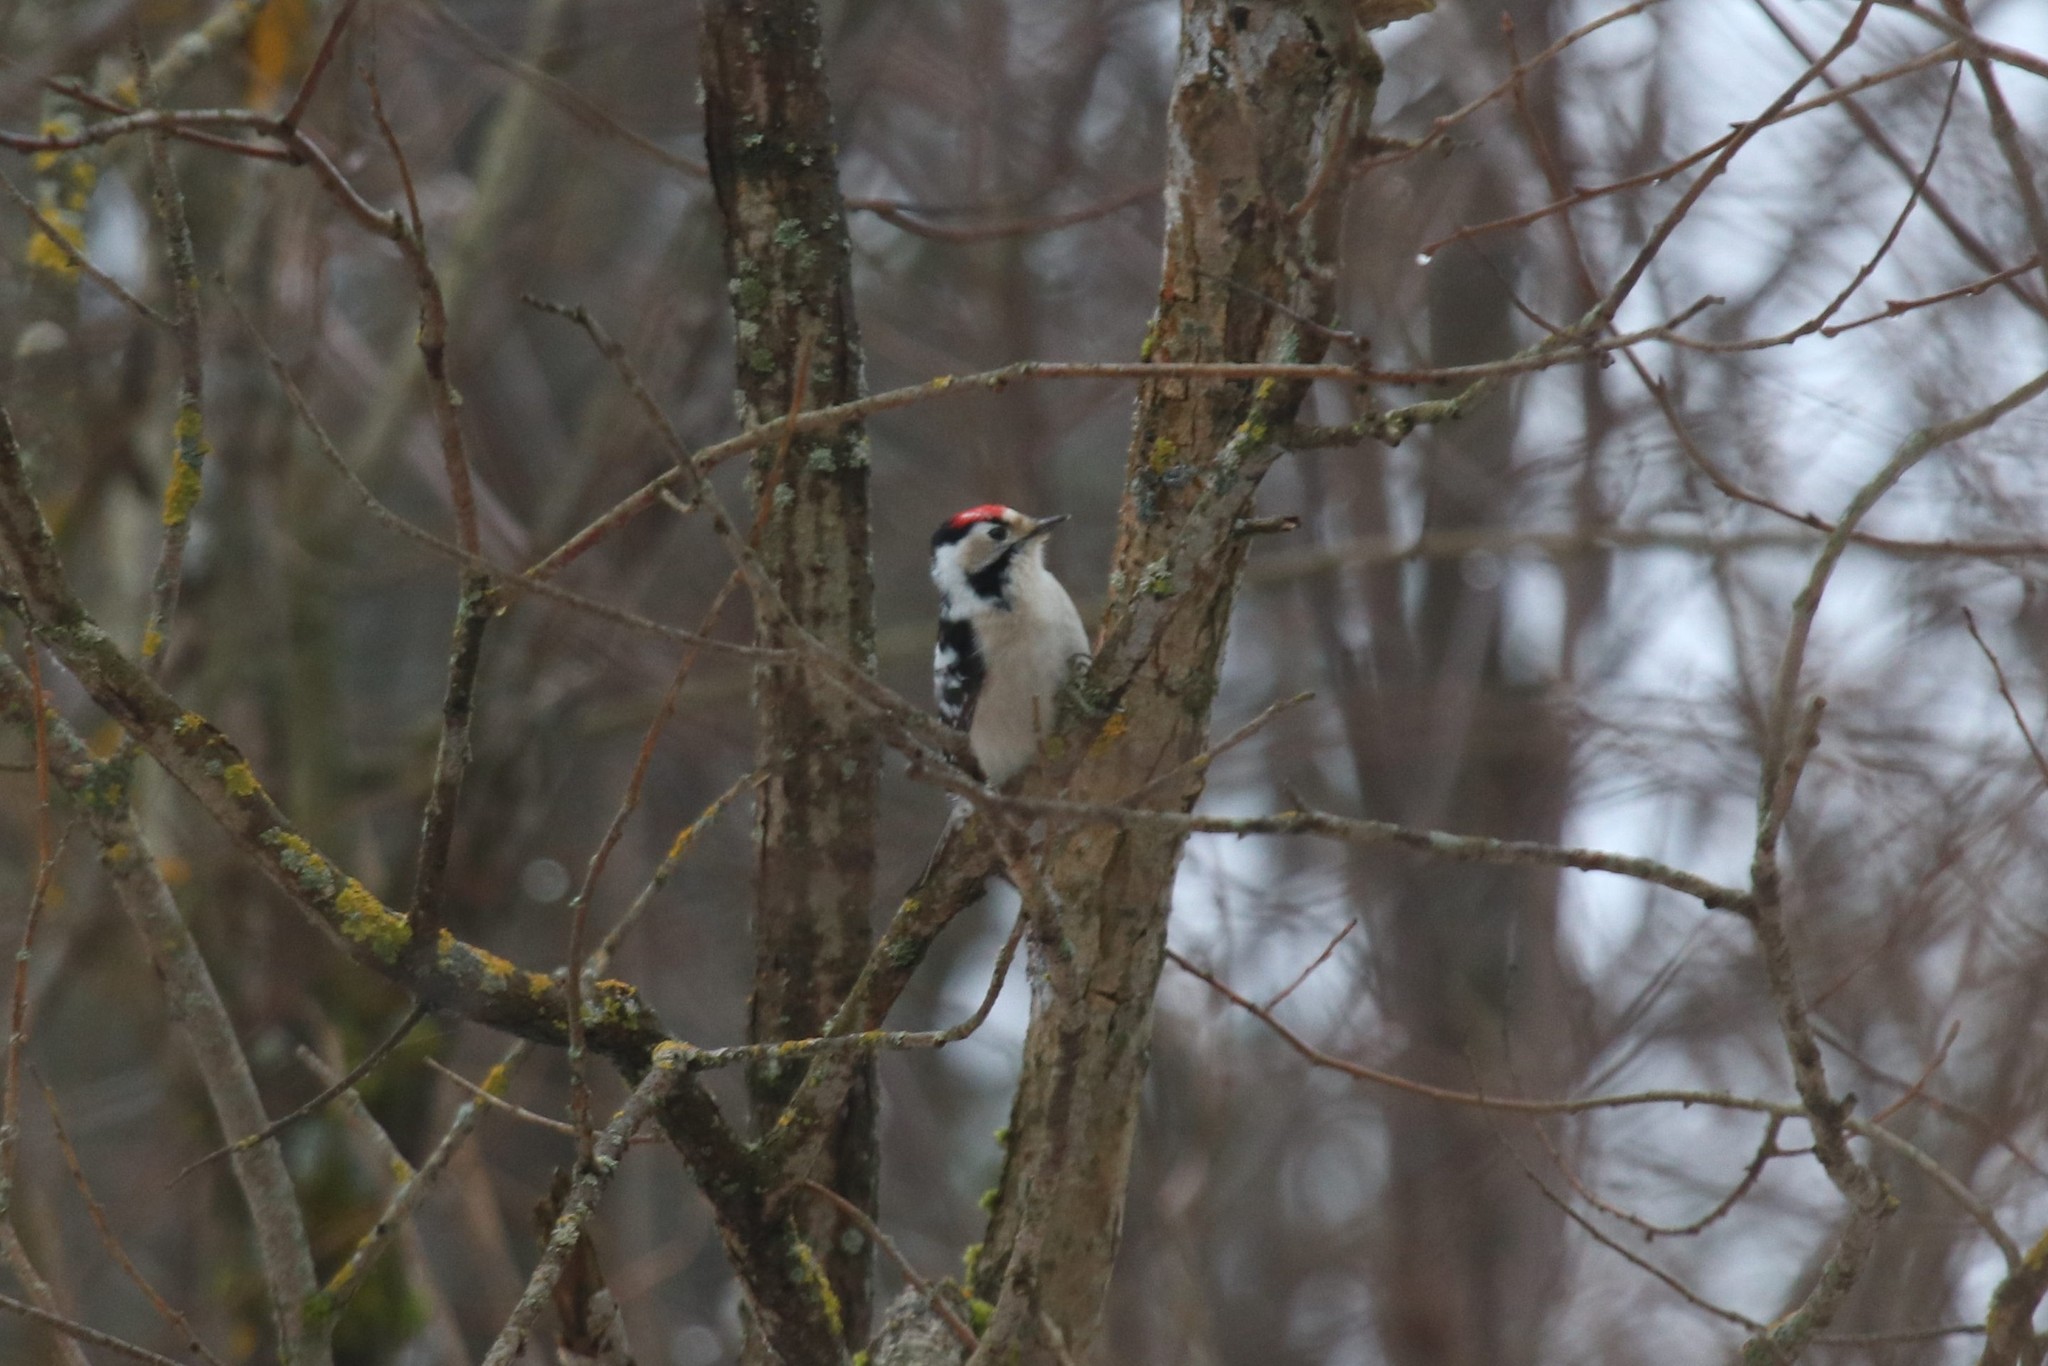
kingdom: Animalia
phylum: Chordata
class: Aves
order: Piciformes
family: Picidae
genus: Dryobates
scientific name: Dryobates minor
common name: Lesser spotted woodpecker
